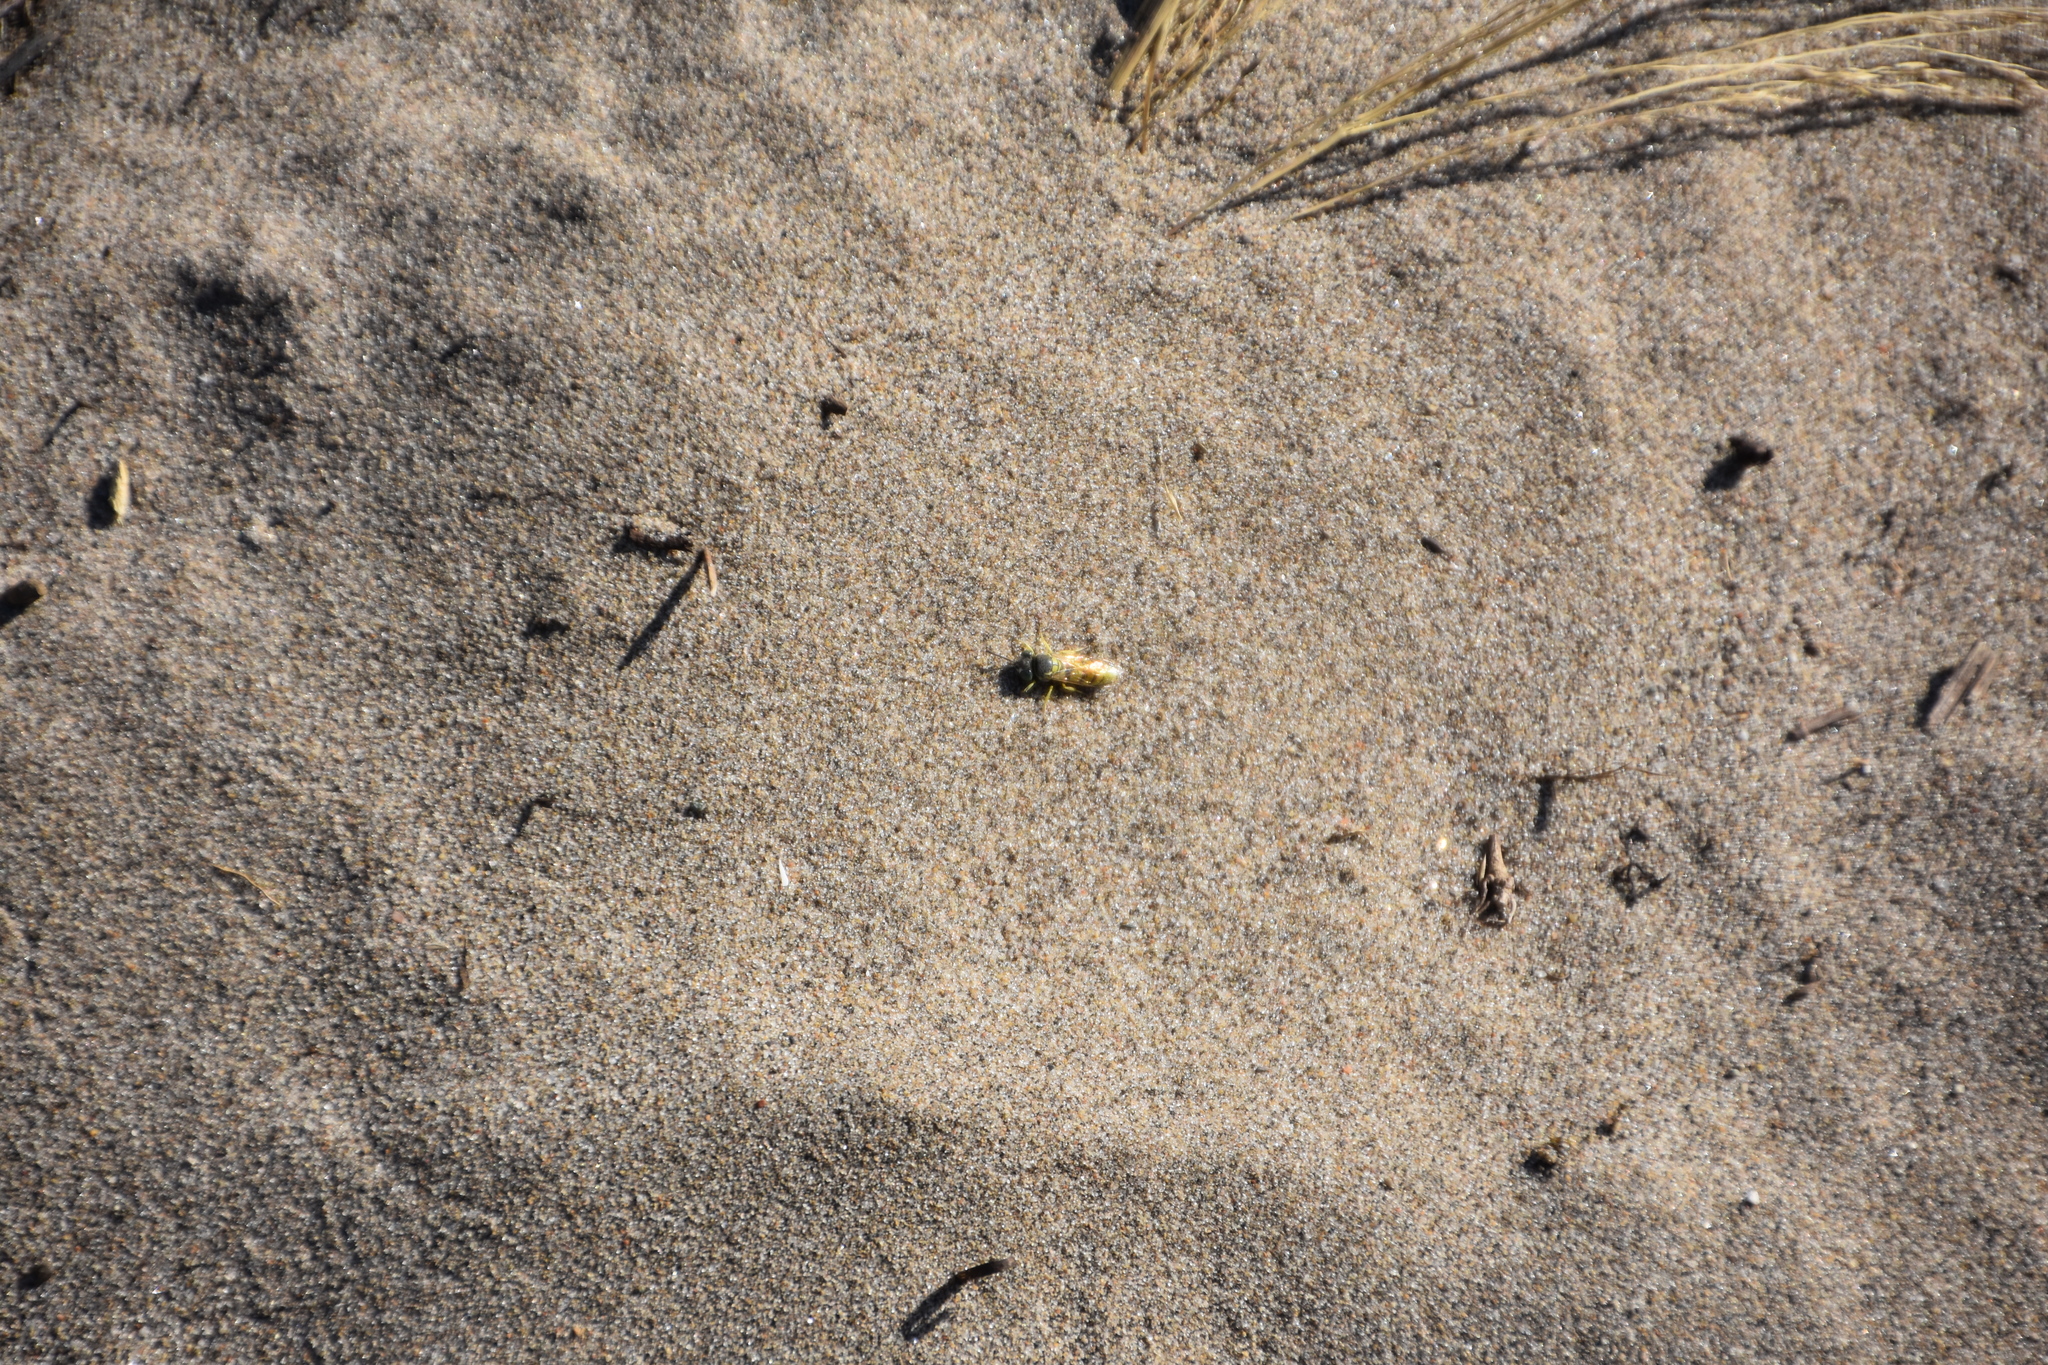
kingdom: Animalia
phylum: Arthropoda
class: Insecta
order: Hymenoptera
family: Crabronidae
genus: Microbembex
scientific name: Microbembex monodonta
